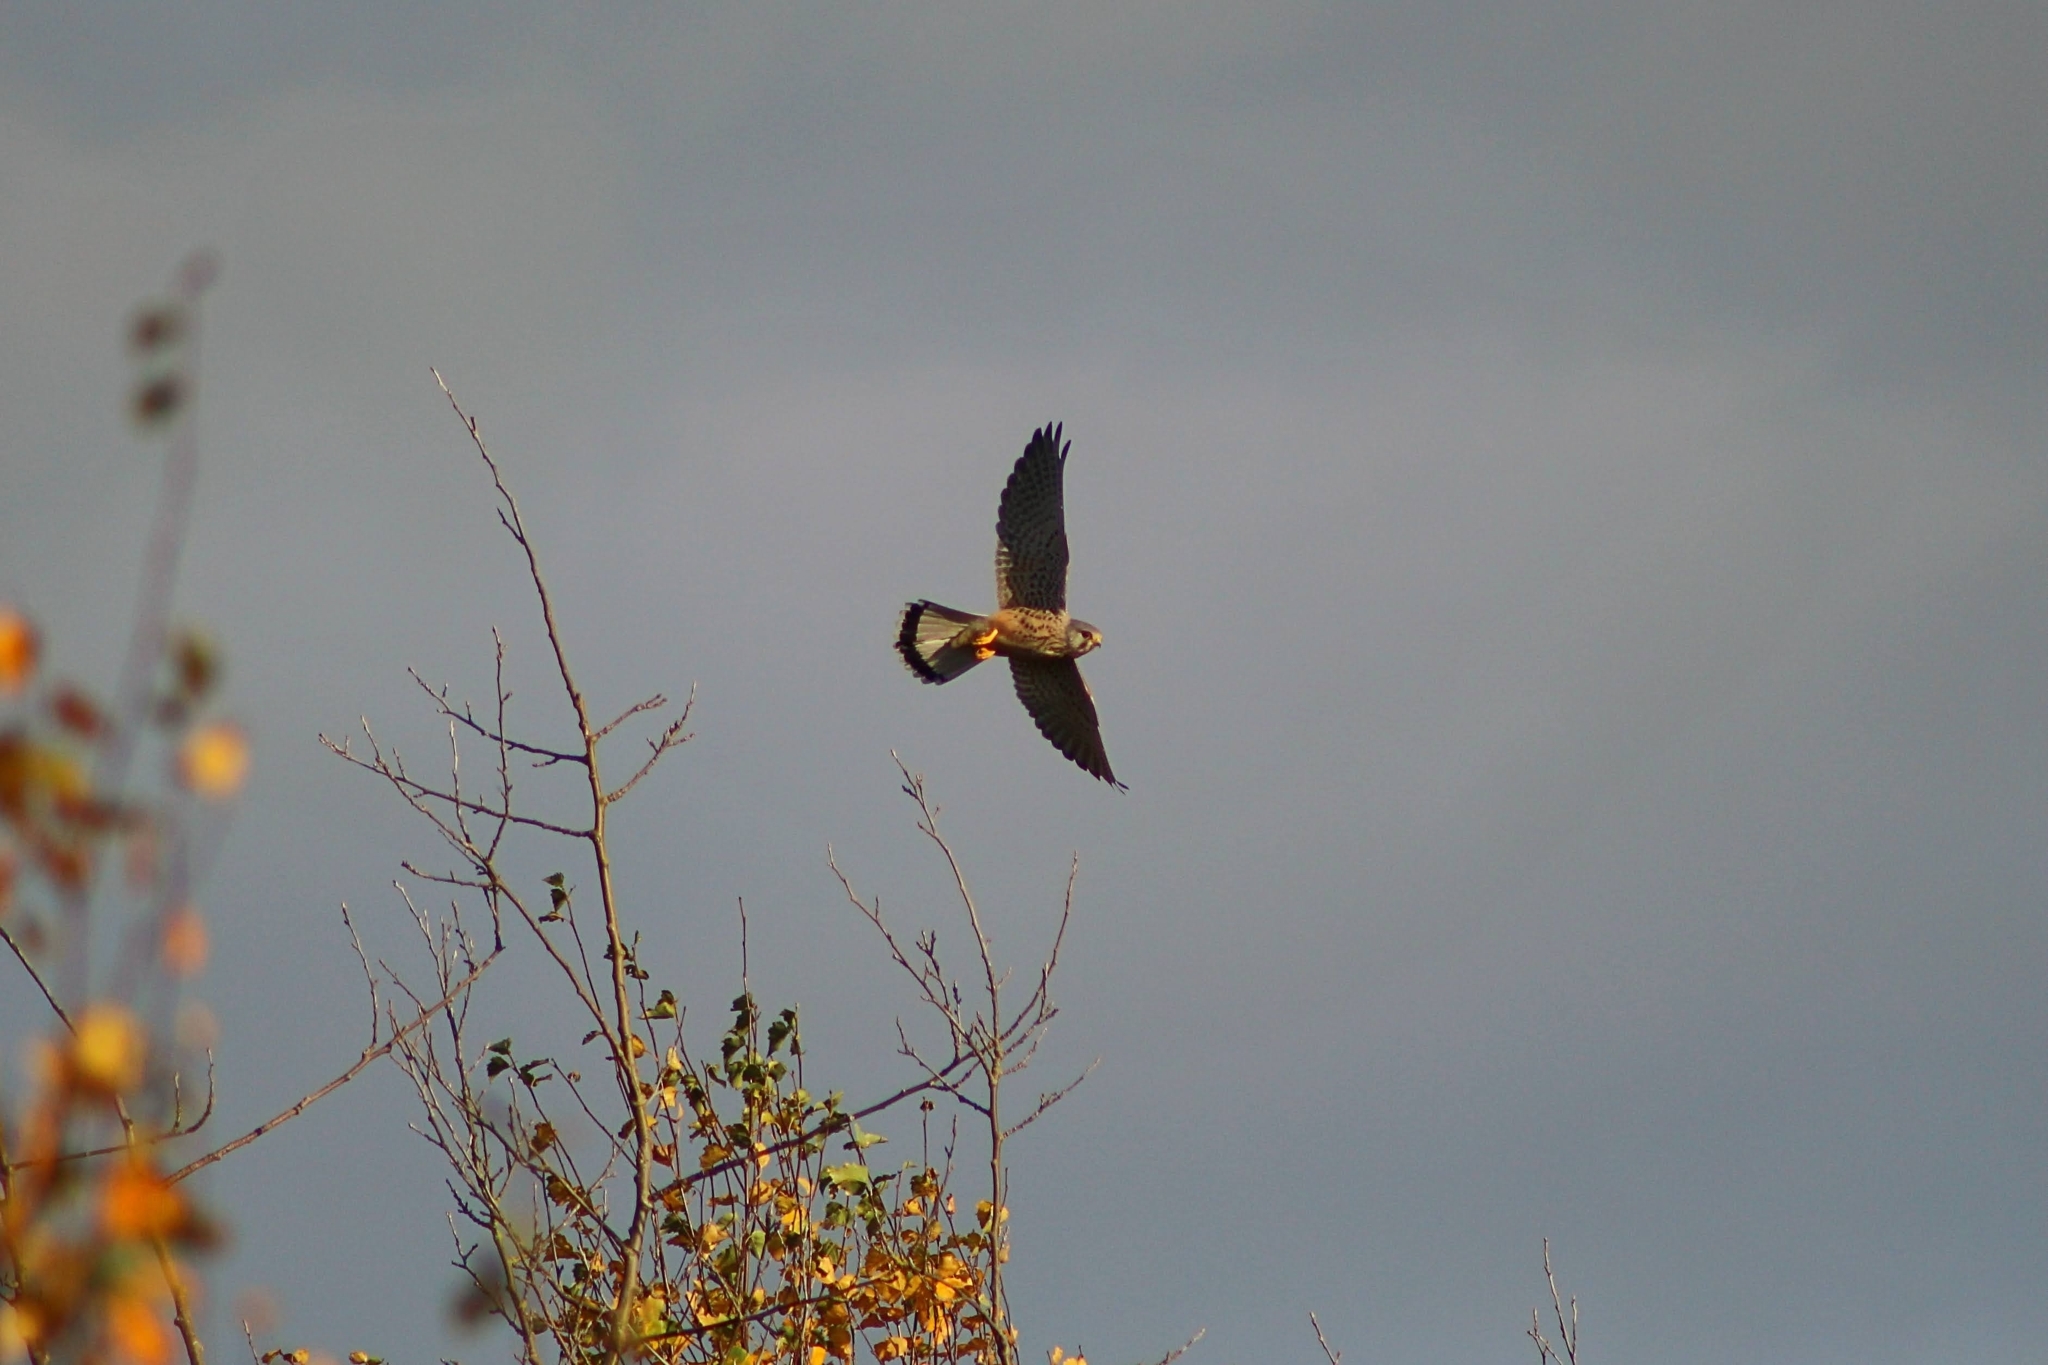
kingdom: Animalia
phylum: Chordata
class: Aves
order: Falconiformes
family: Falconidae
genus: Falco
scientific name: Falco tinnunculus
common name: Common kestrel
